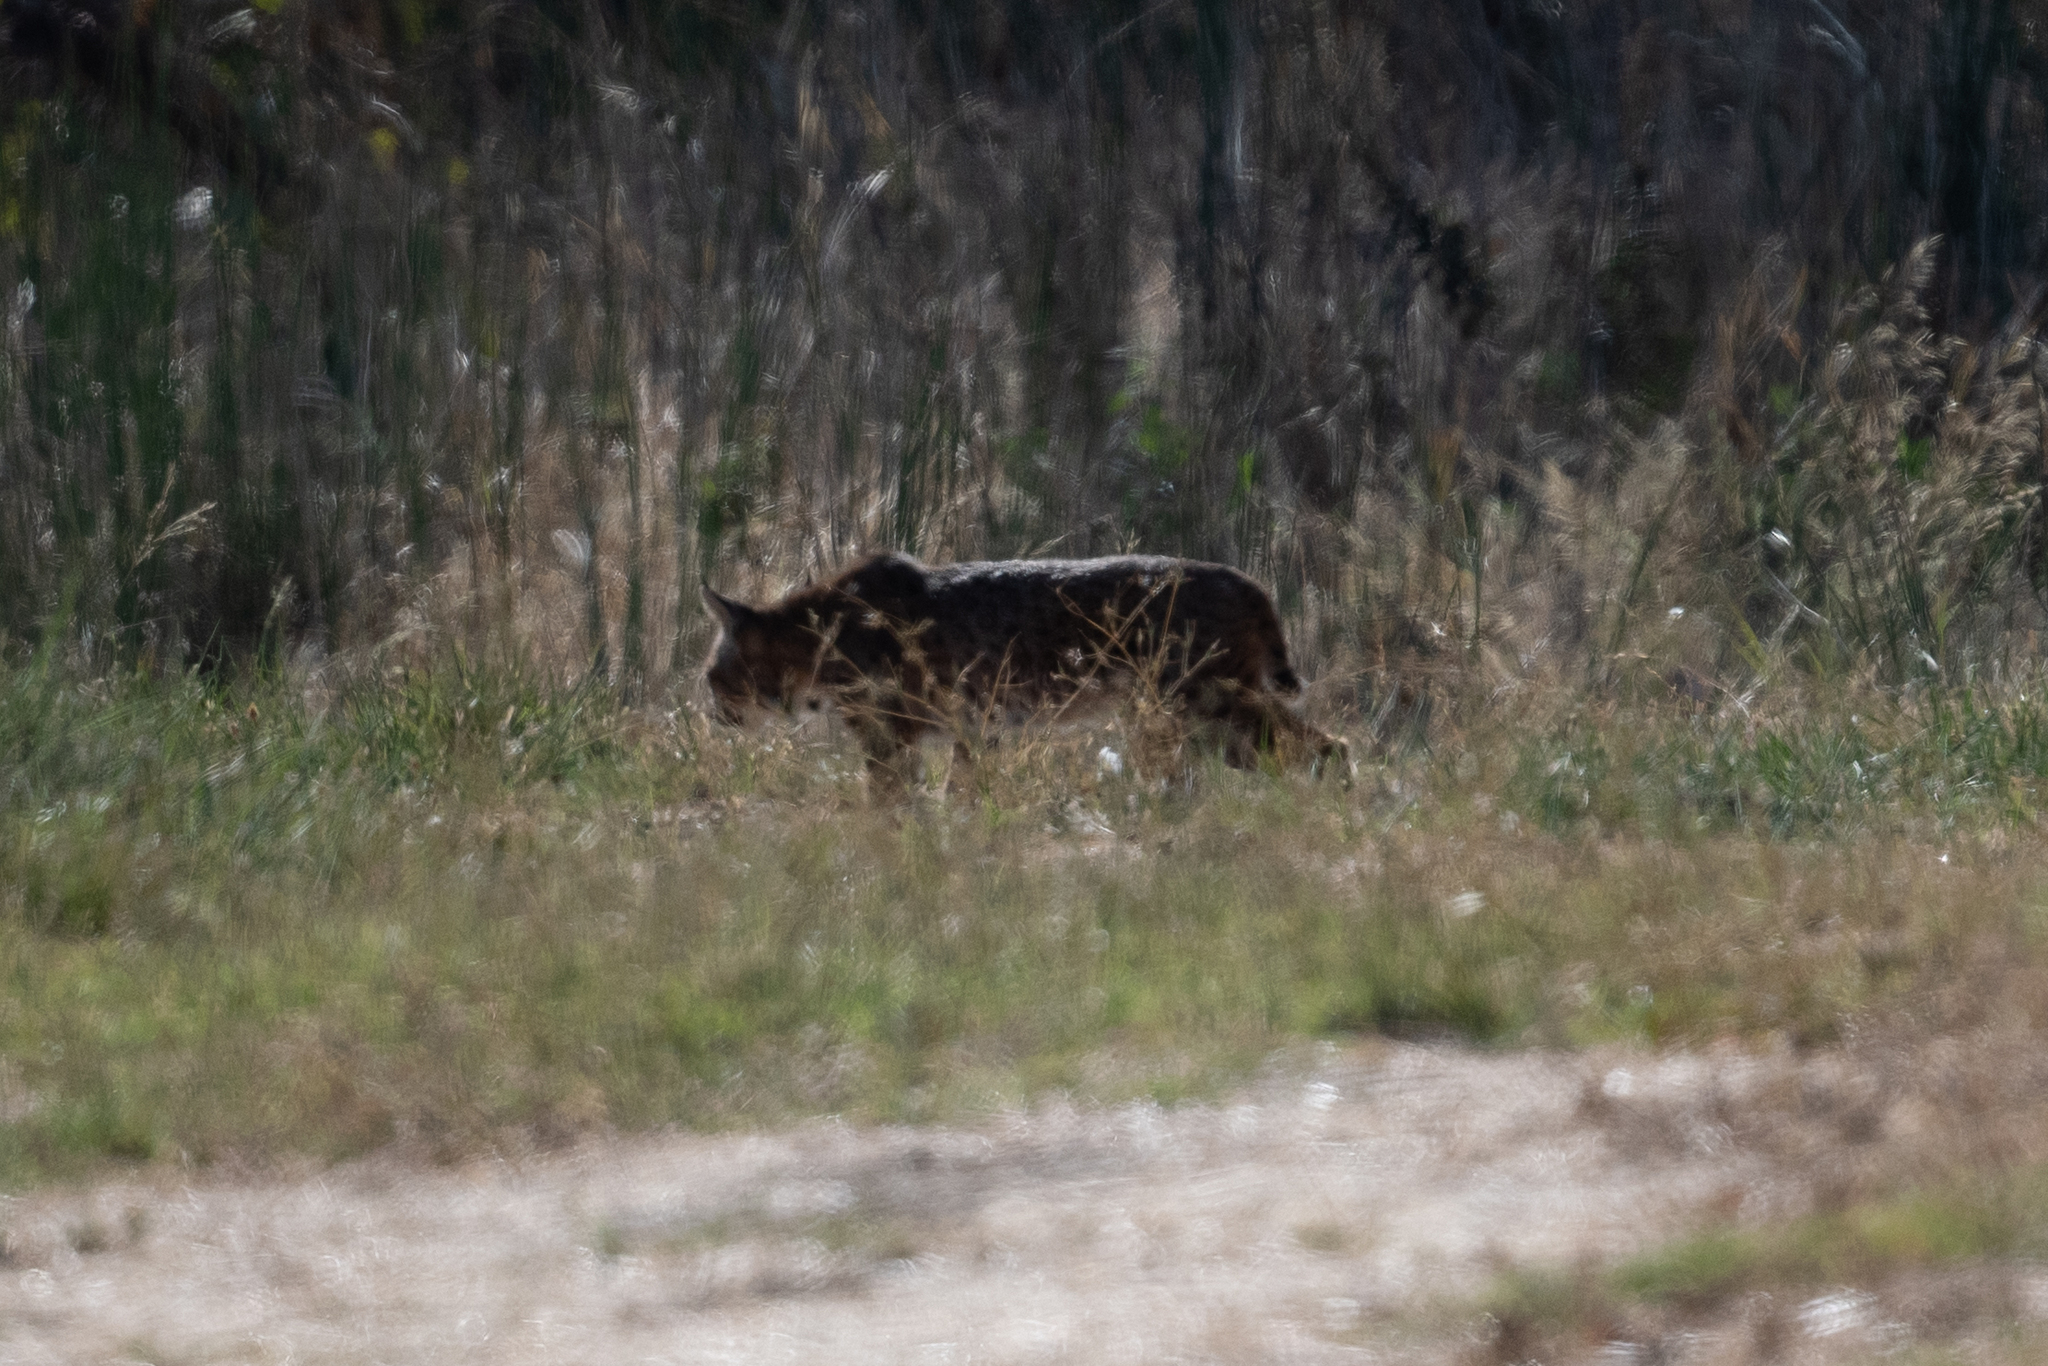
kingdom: Animalia
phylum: Chordata
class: Mammalia
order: Carnivora
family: Felidae
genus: Lynx
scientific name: Lynx rufus
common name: Bobcat
